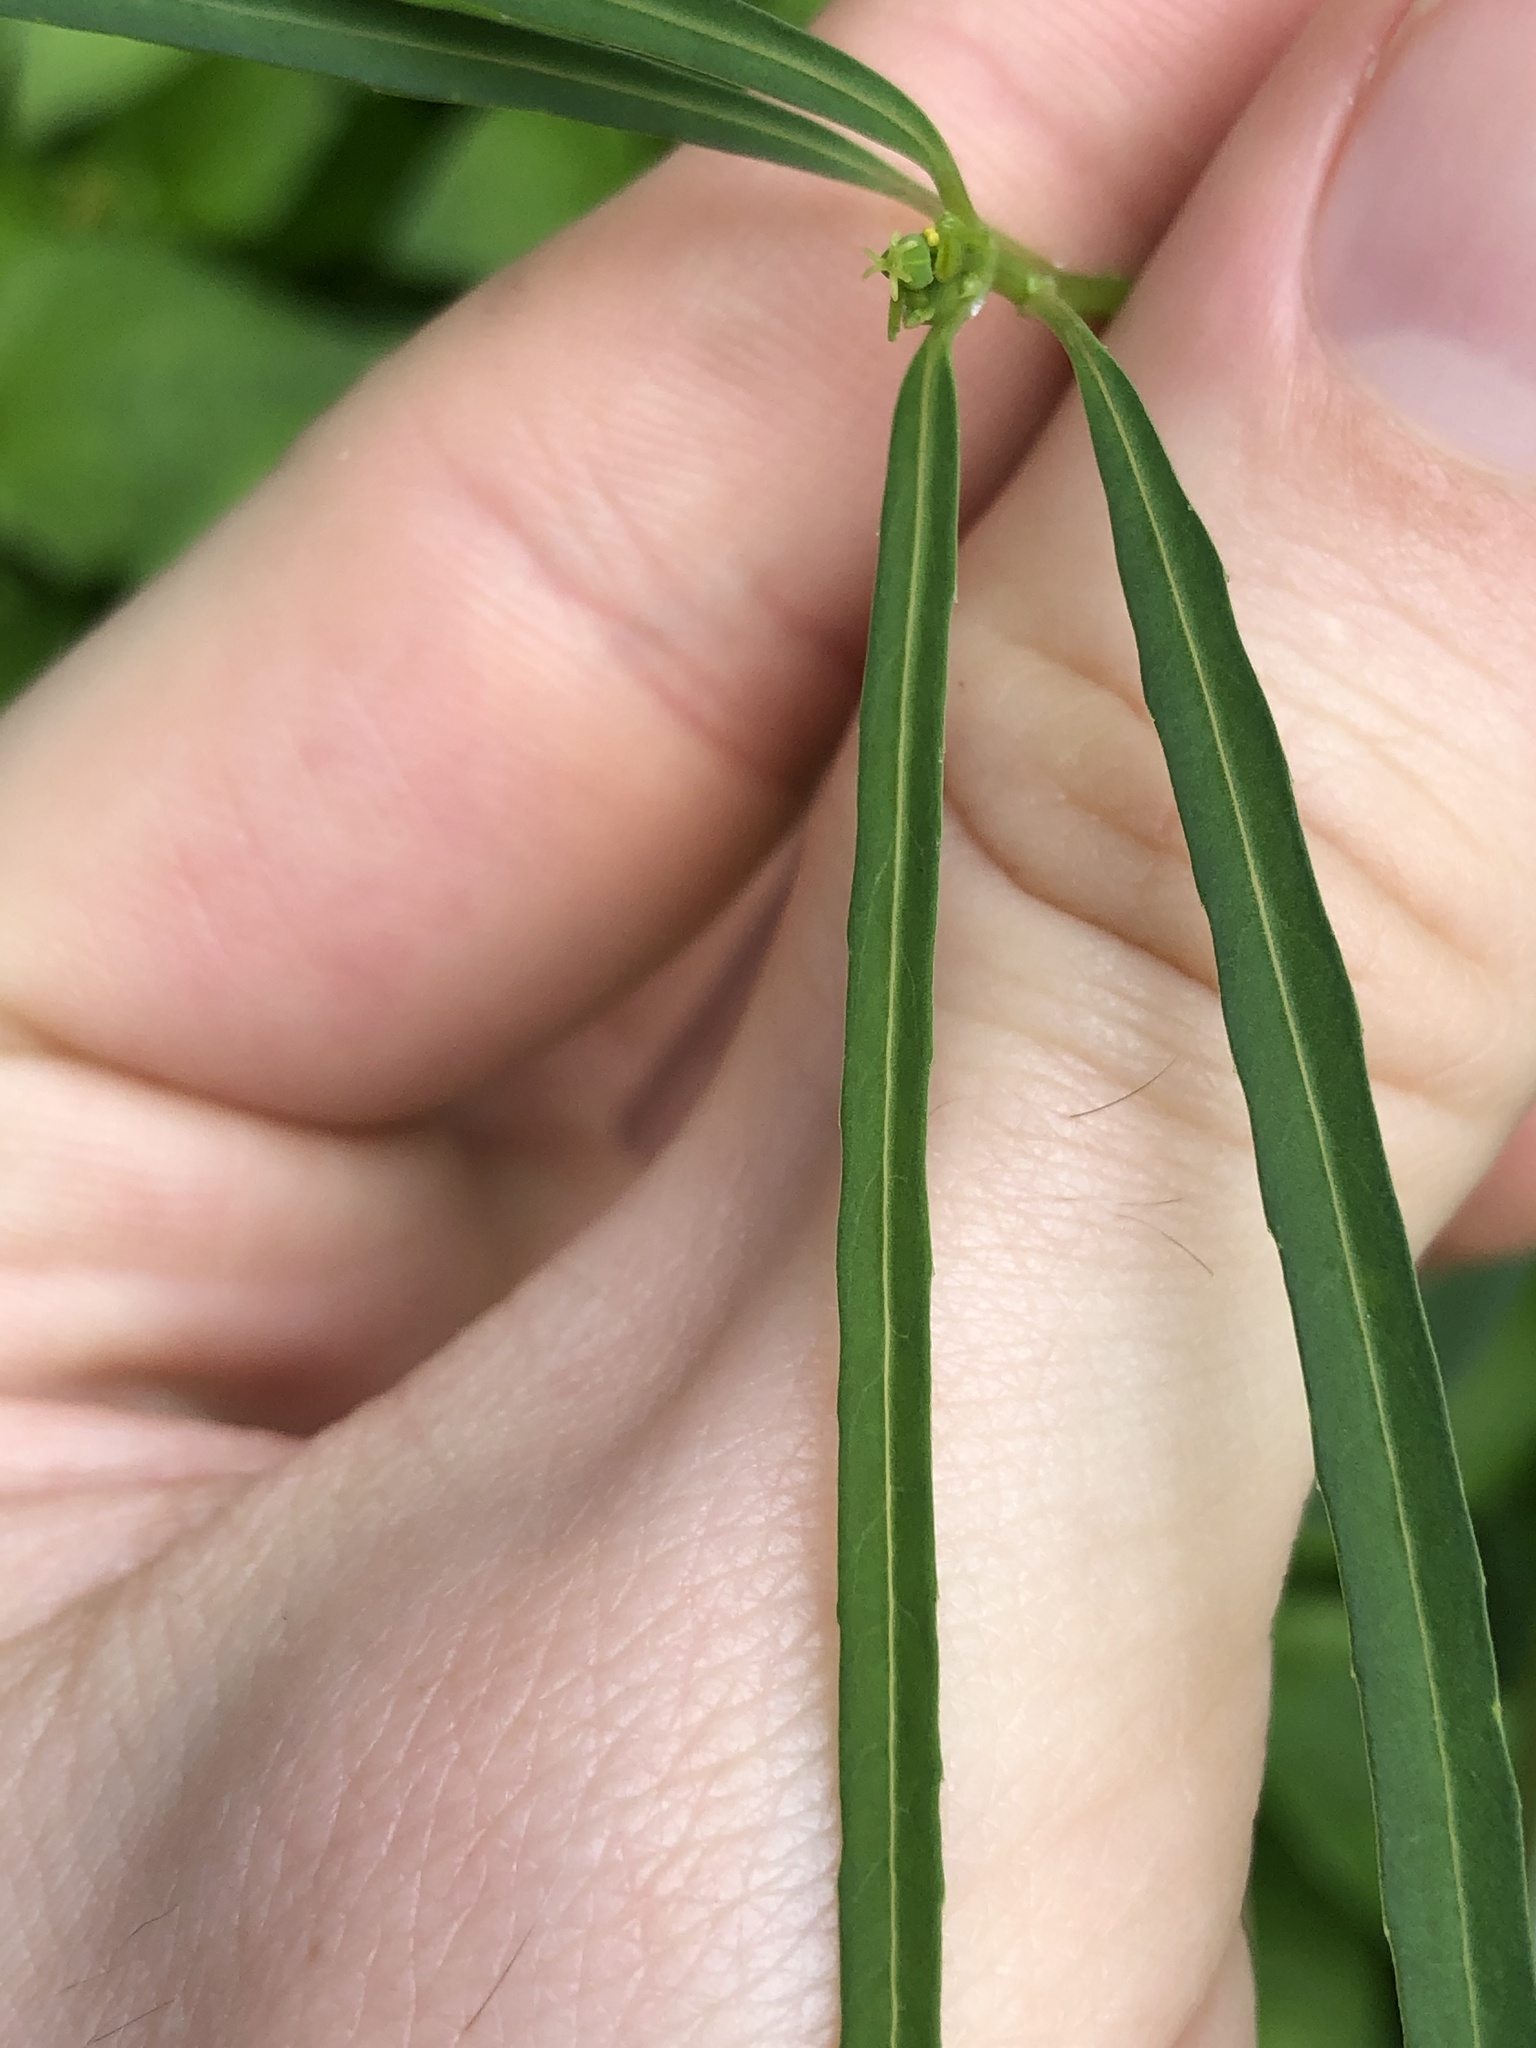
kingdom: Plantae
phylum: Tracheophyta
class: Magnoliopsida
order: Malpighiales
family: Euphorbiaceae
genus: Euphorbia
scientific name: Euphorbia heterophylla
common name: Mexican fireplant
